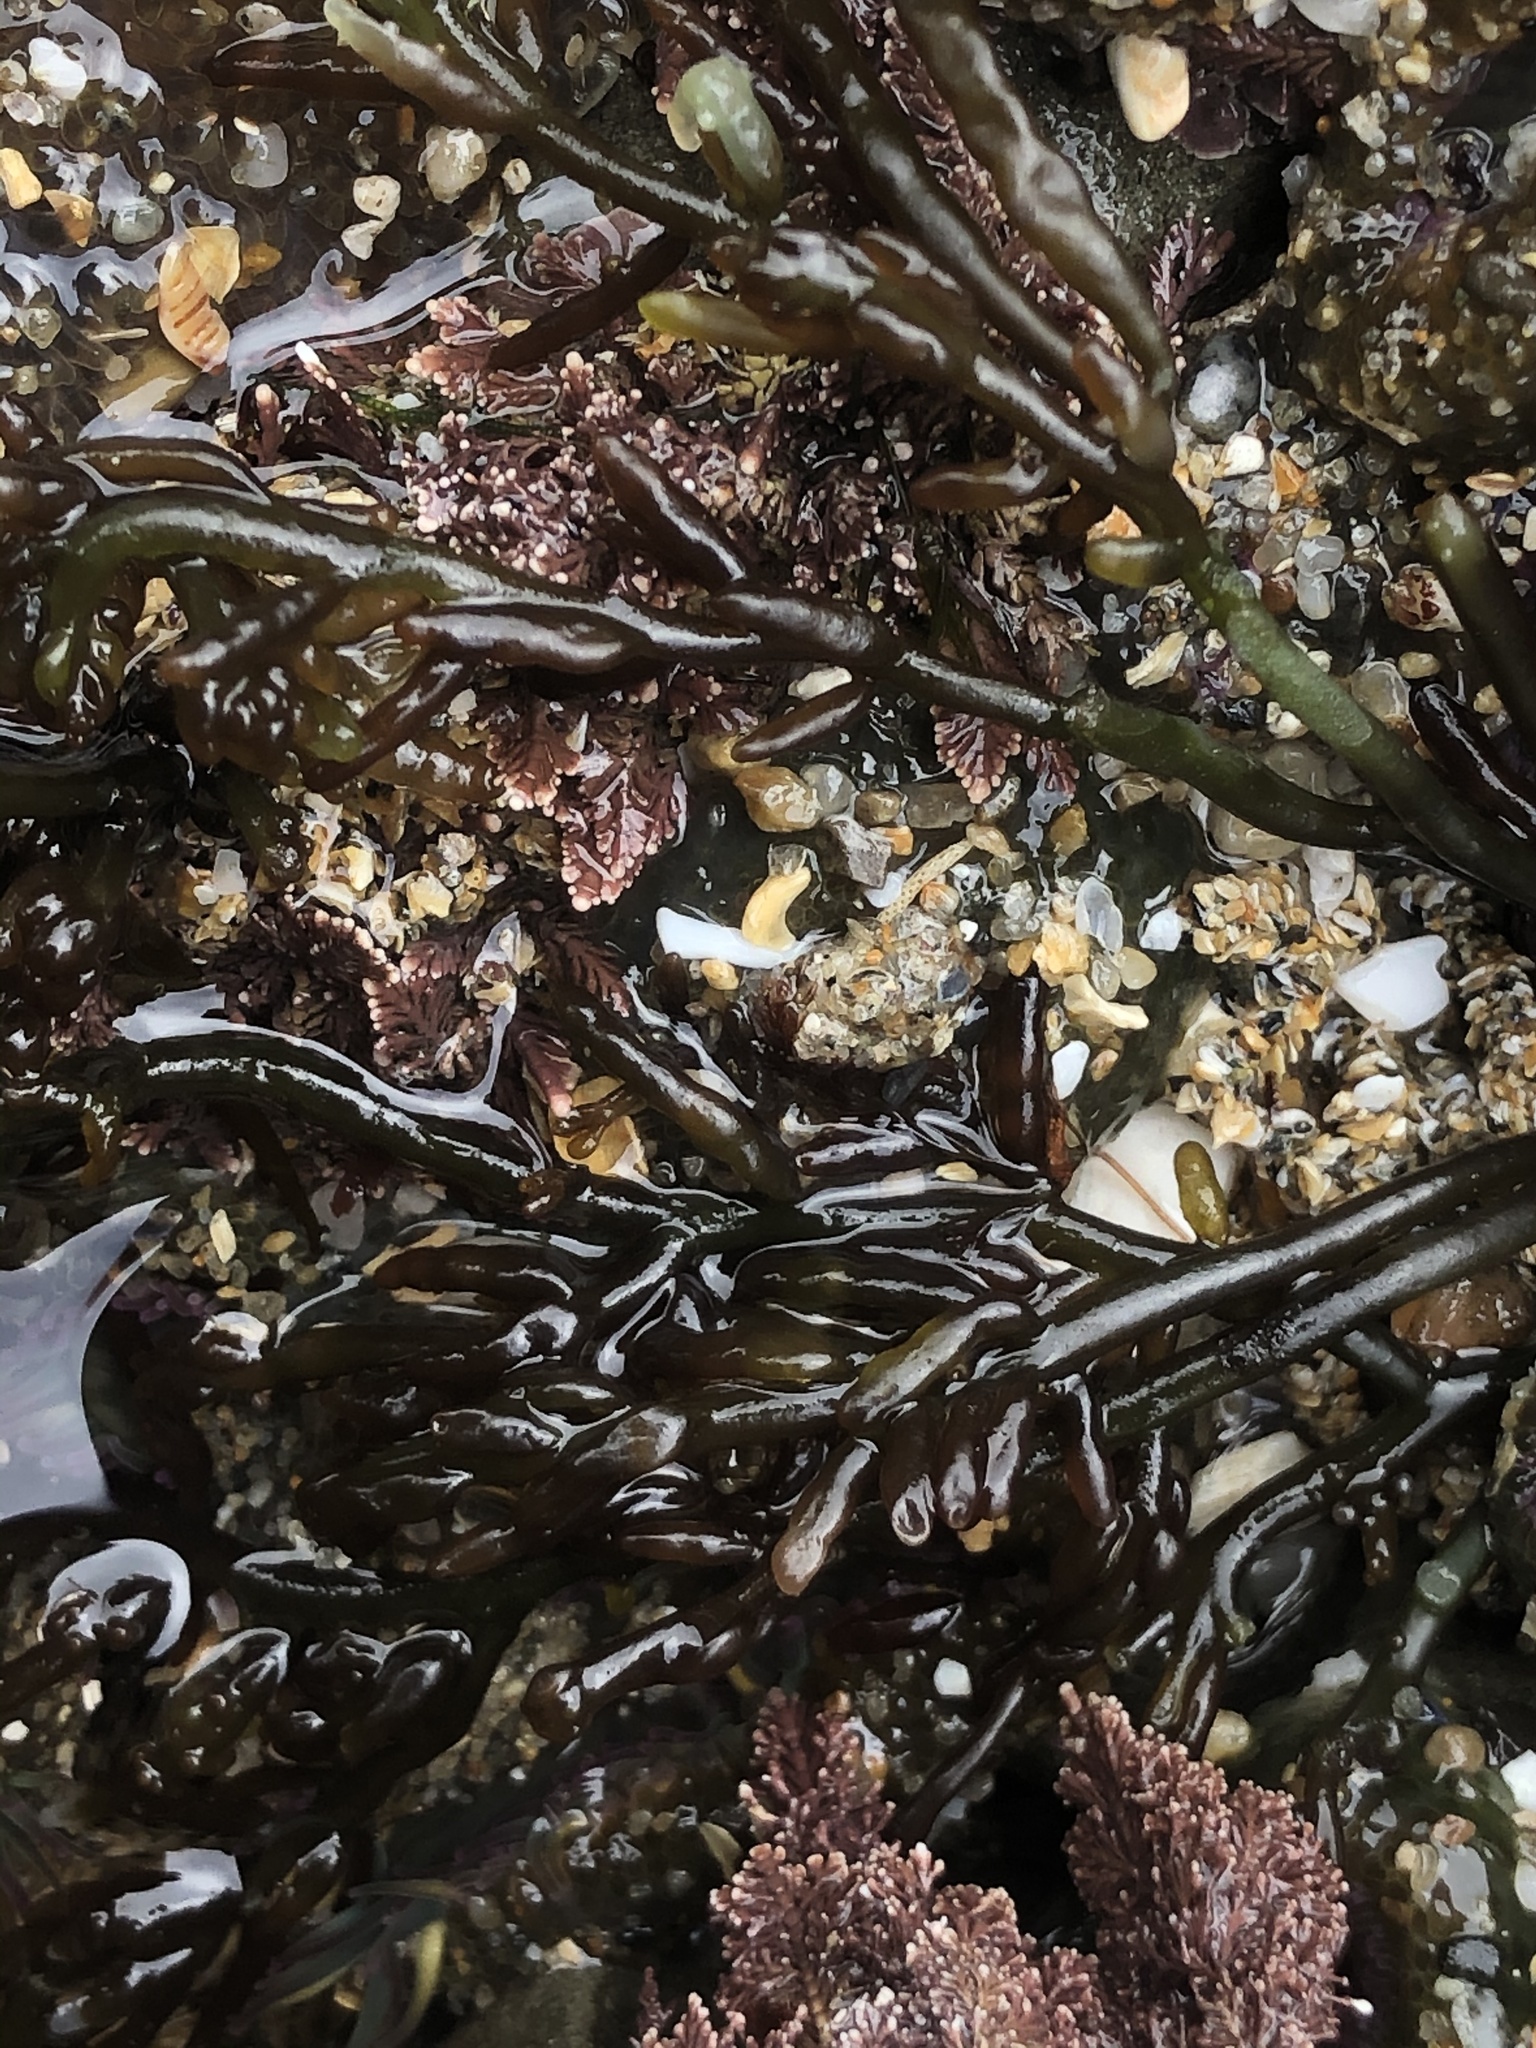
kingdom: Plantae
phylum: Rhodophyta
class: Florideophyceae
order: Rhodymeniales
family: Champiaceae
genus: Neogastroclonium
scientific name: Neogastroclonium subarticulatum
